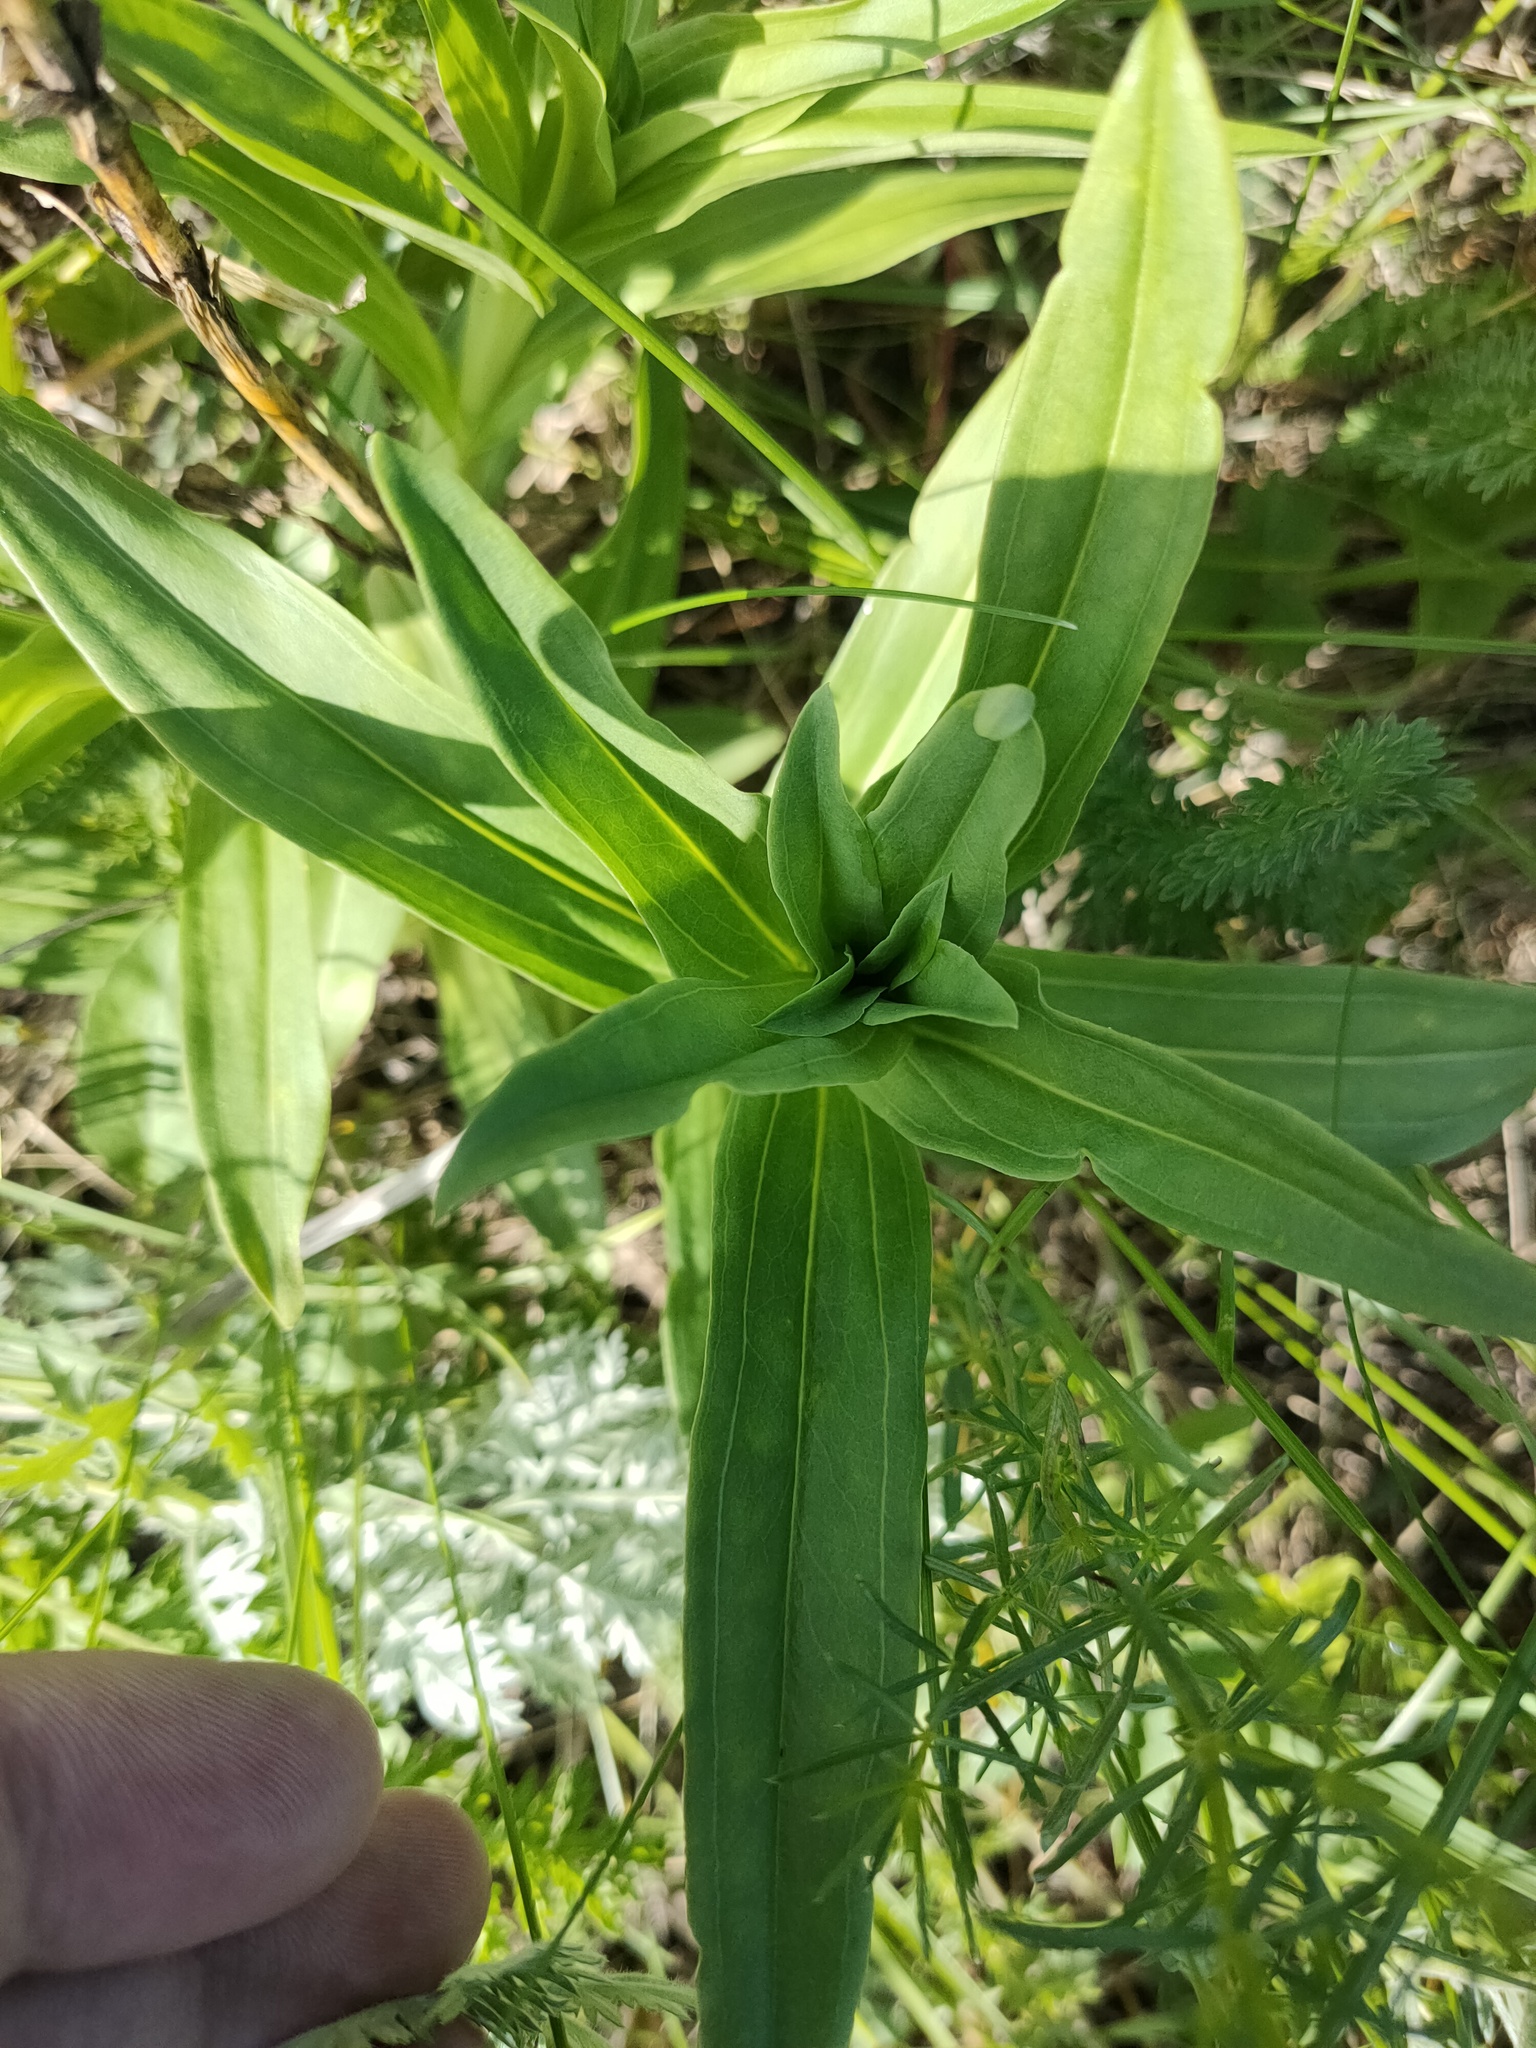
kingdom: Plantae
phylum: Tracheophyta
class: Magnoliopsida
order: Gentianales
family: Gentianaceae
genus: Gentiana
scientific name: Gentiana cruciata
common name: Cross gentian
